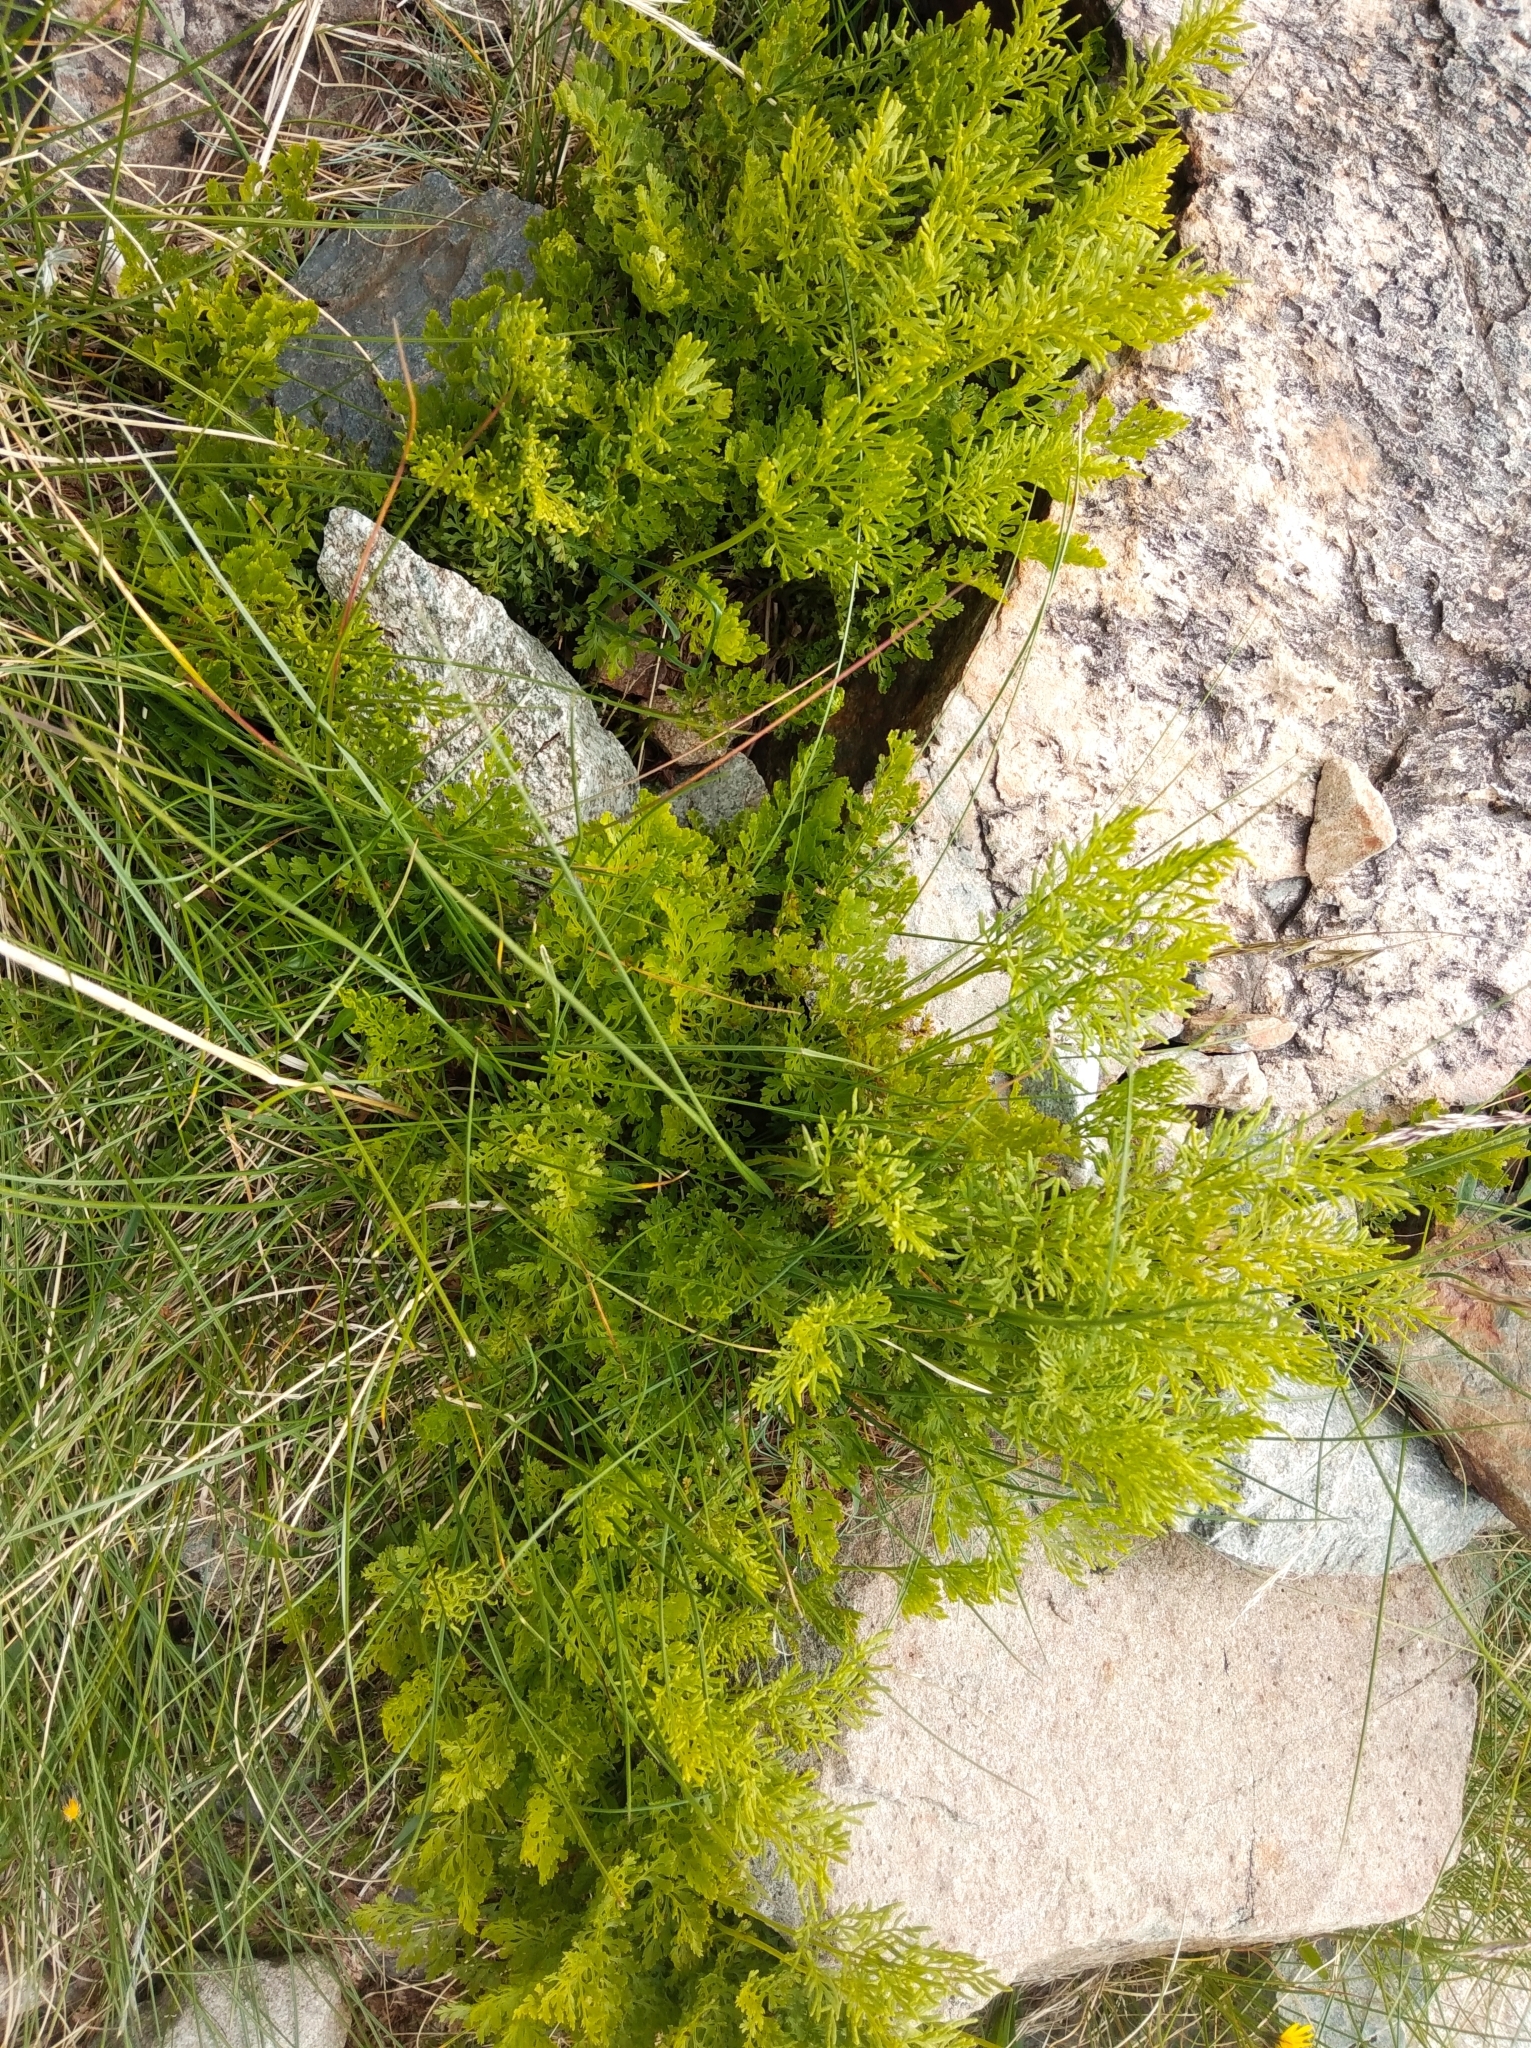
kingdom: Plantae
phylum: Tracheophyta
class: Polypodiopsida
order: Polypodiales
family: Pteridaceae
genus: Cryptogramma
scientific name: Cryptogramma crispa
